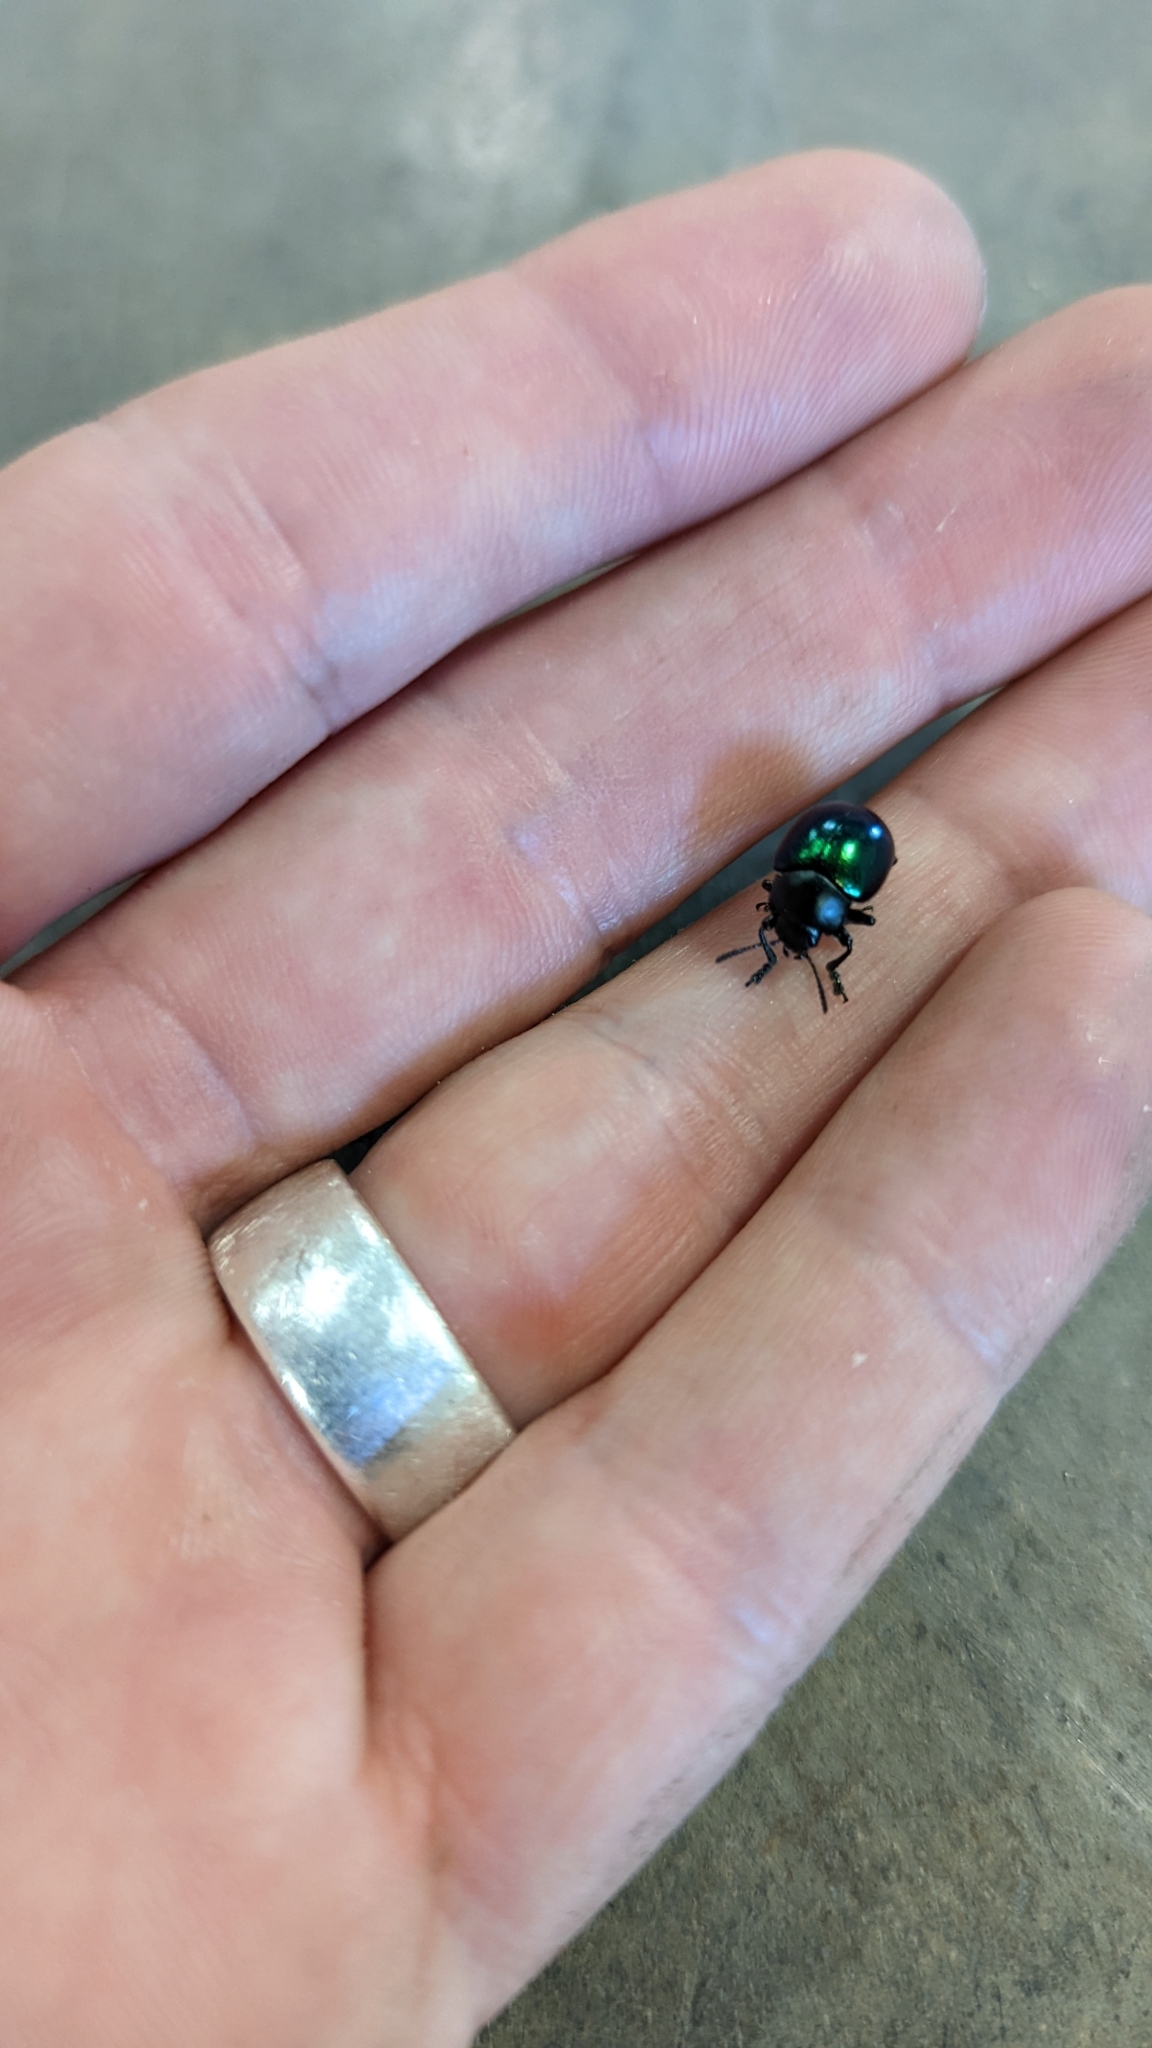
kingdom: Animalia
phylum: Arthropoda
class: Insecta
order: Coleoptera
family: Chrysomelidae
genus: Leptinotarsa
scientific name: Leptinotarsa haldemani
